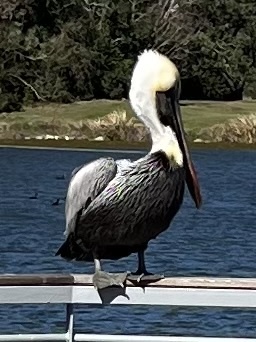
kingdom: Animalia
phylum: Chordata
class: Aves
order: Pelecaniformes
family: Pelecanidae
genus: Pelecanus
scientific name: Pelecanus occidentalis
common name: Brown pelican
